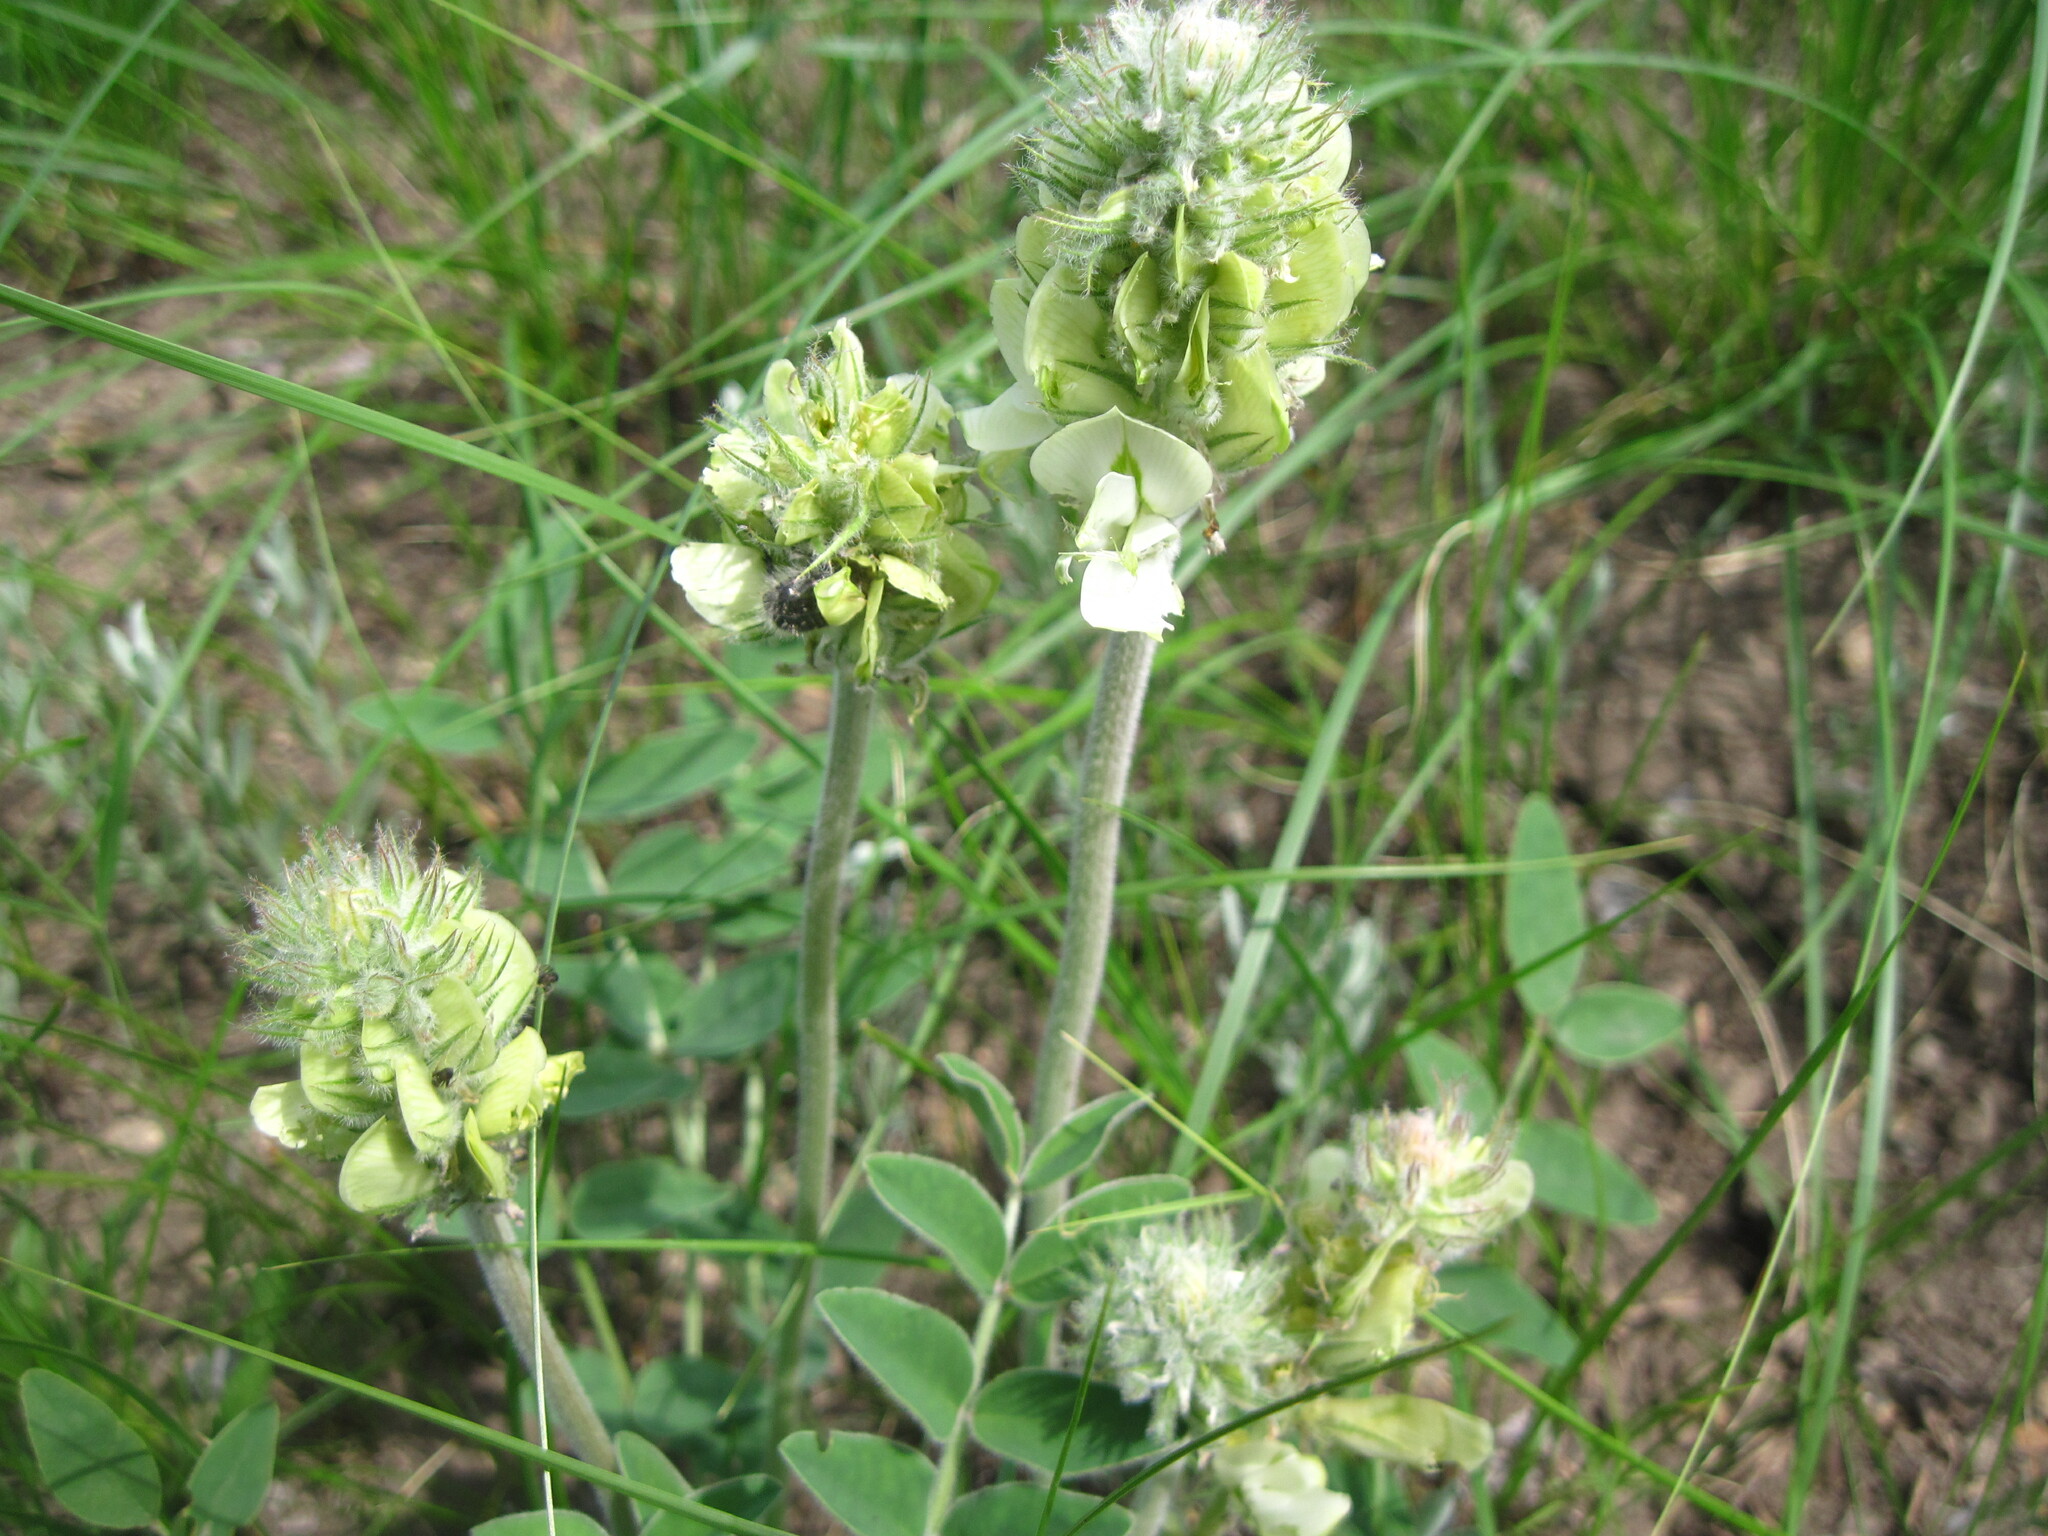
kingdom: Plantae
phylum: Tracheophyta
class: Magnoliopsida
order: Fabales
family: Fabaceae
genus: Hedysarum
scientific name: Hedysarum grandiflorum
